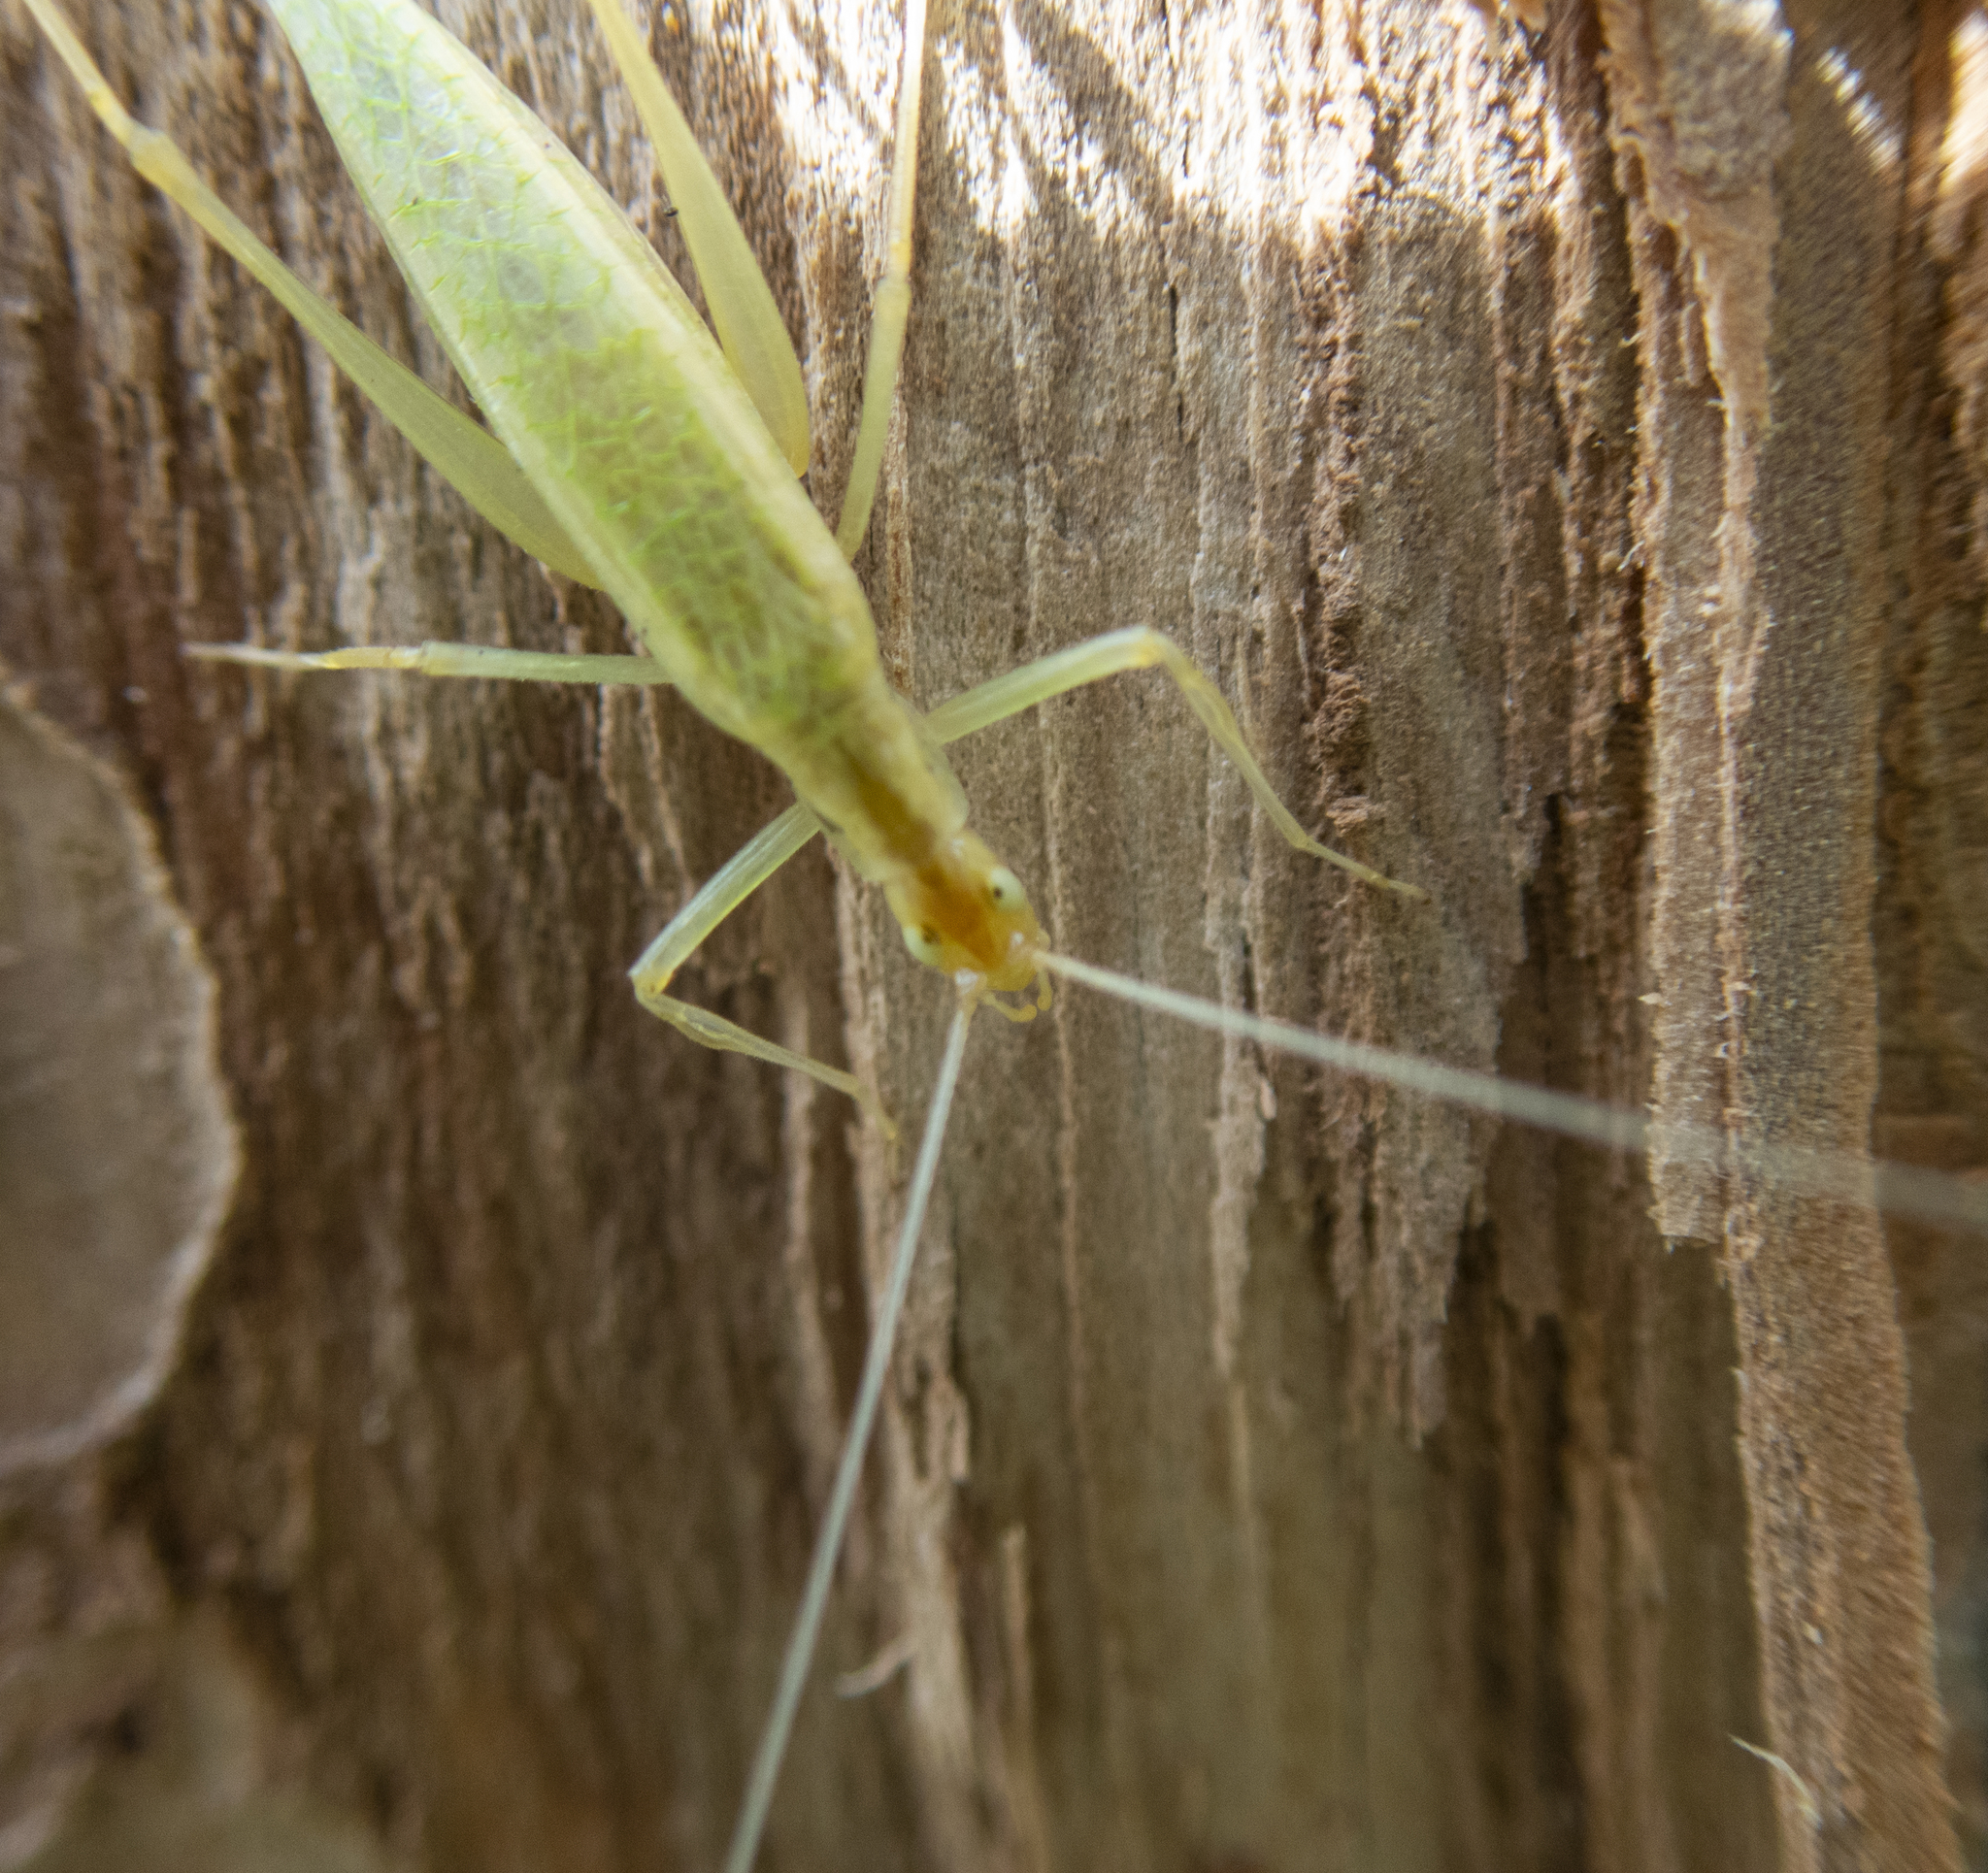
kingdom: Animalia
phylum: Arthropoda
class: Insecta
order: Orthoptera
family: Gryllidae
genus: Oecanthus
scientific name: Oecanthus niveus
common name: Narrow-winged tree cricket
